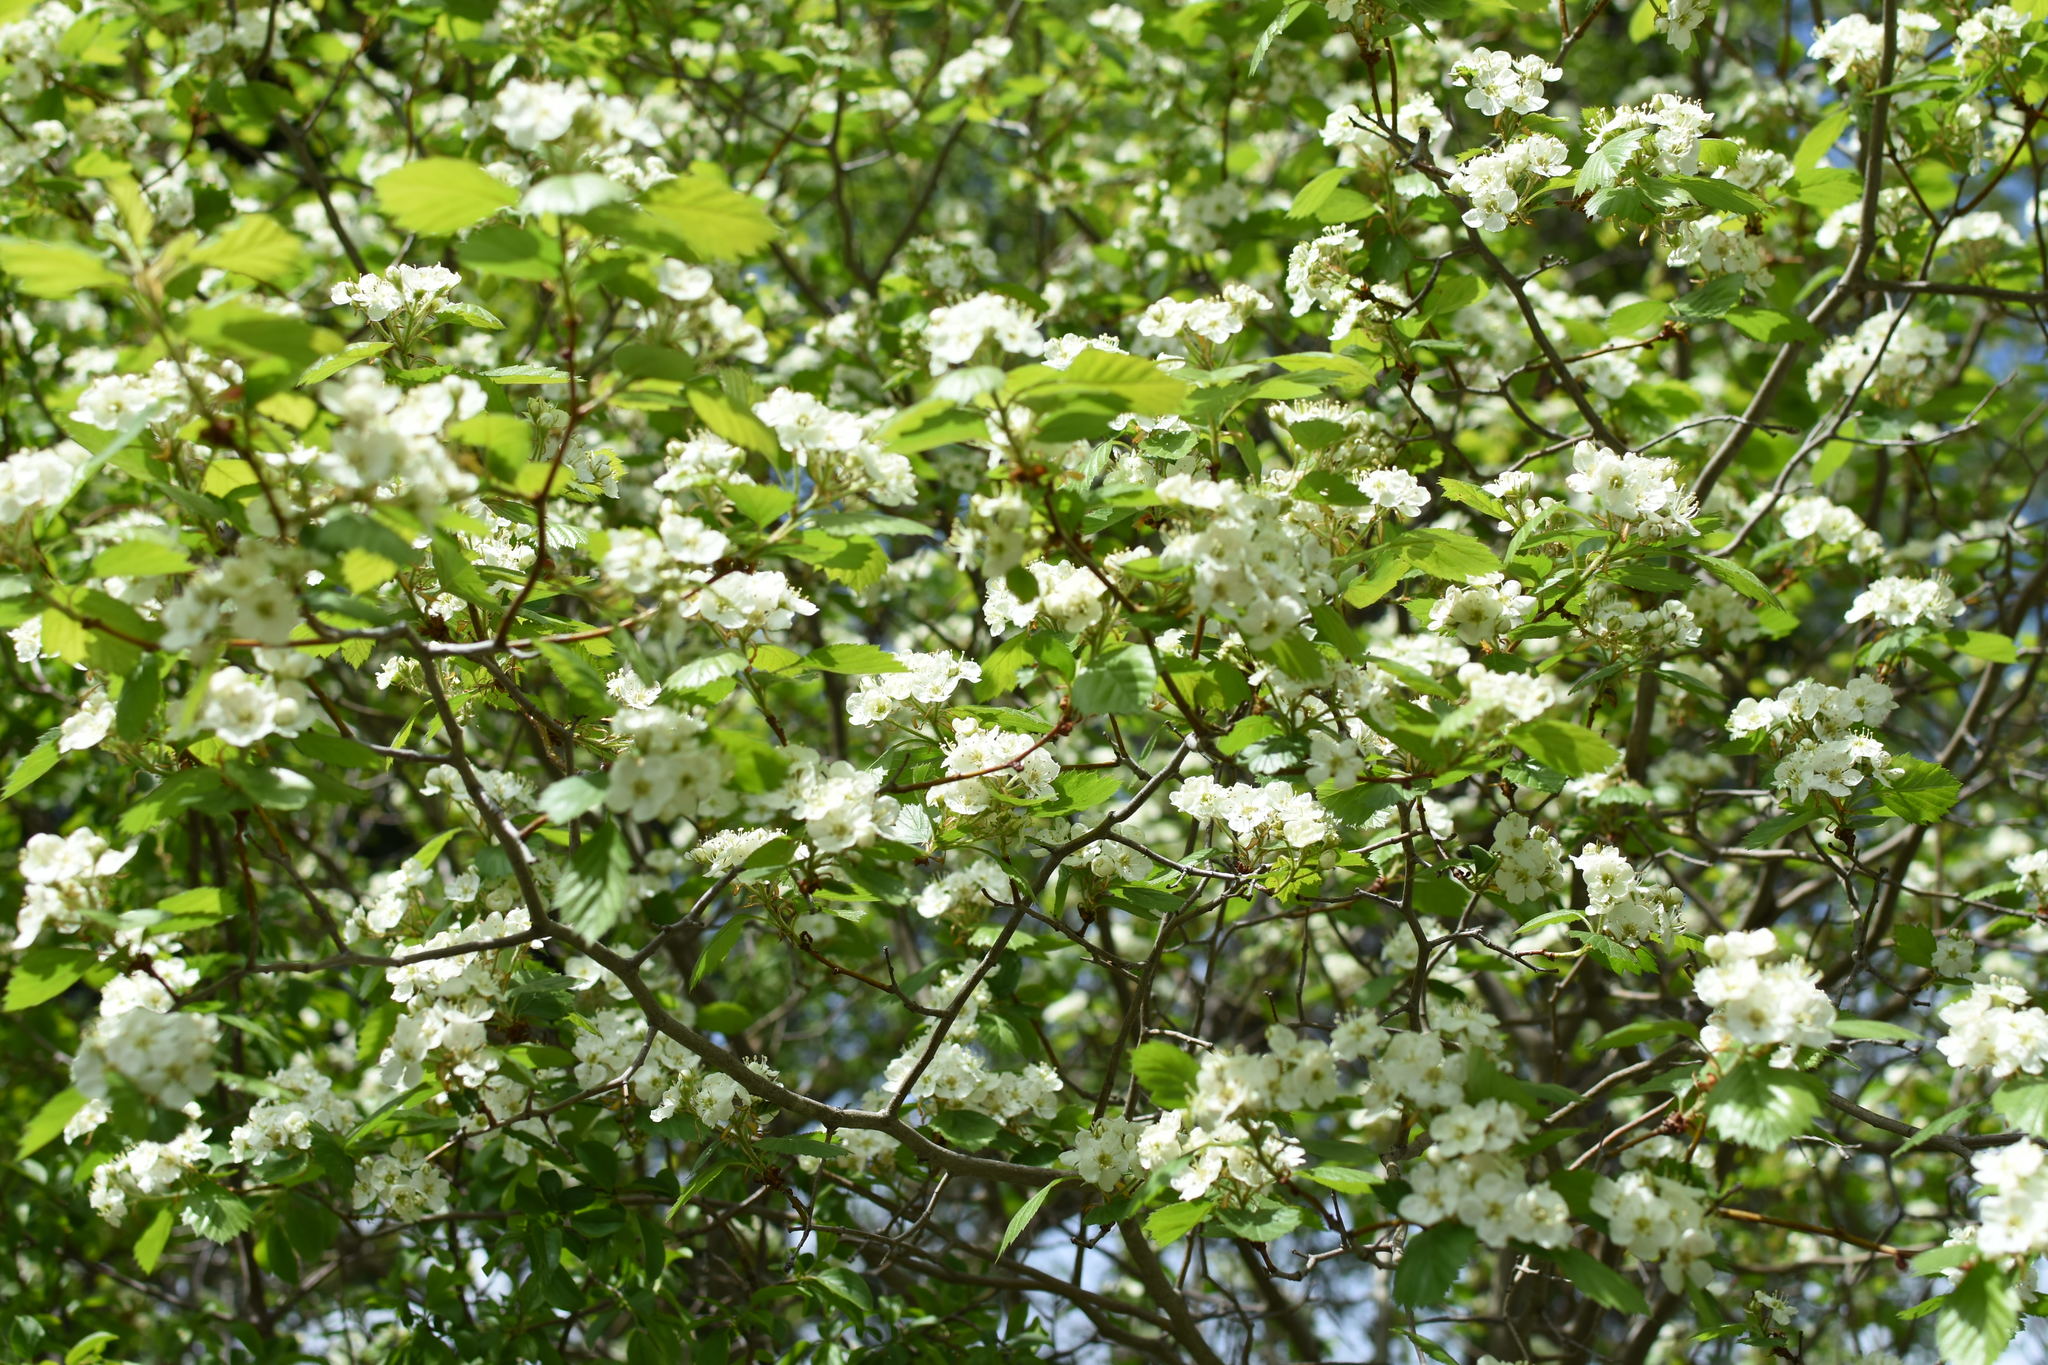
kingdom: Plantae
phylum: Tracheophyta
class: Magnoliopsida
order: Rosales
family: Rosaceae
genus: Crataegus
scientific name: Crataegus chrysocarpa
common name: Fire-berry hawthorn
